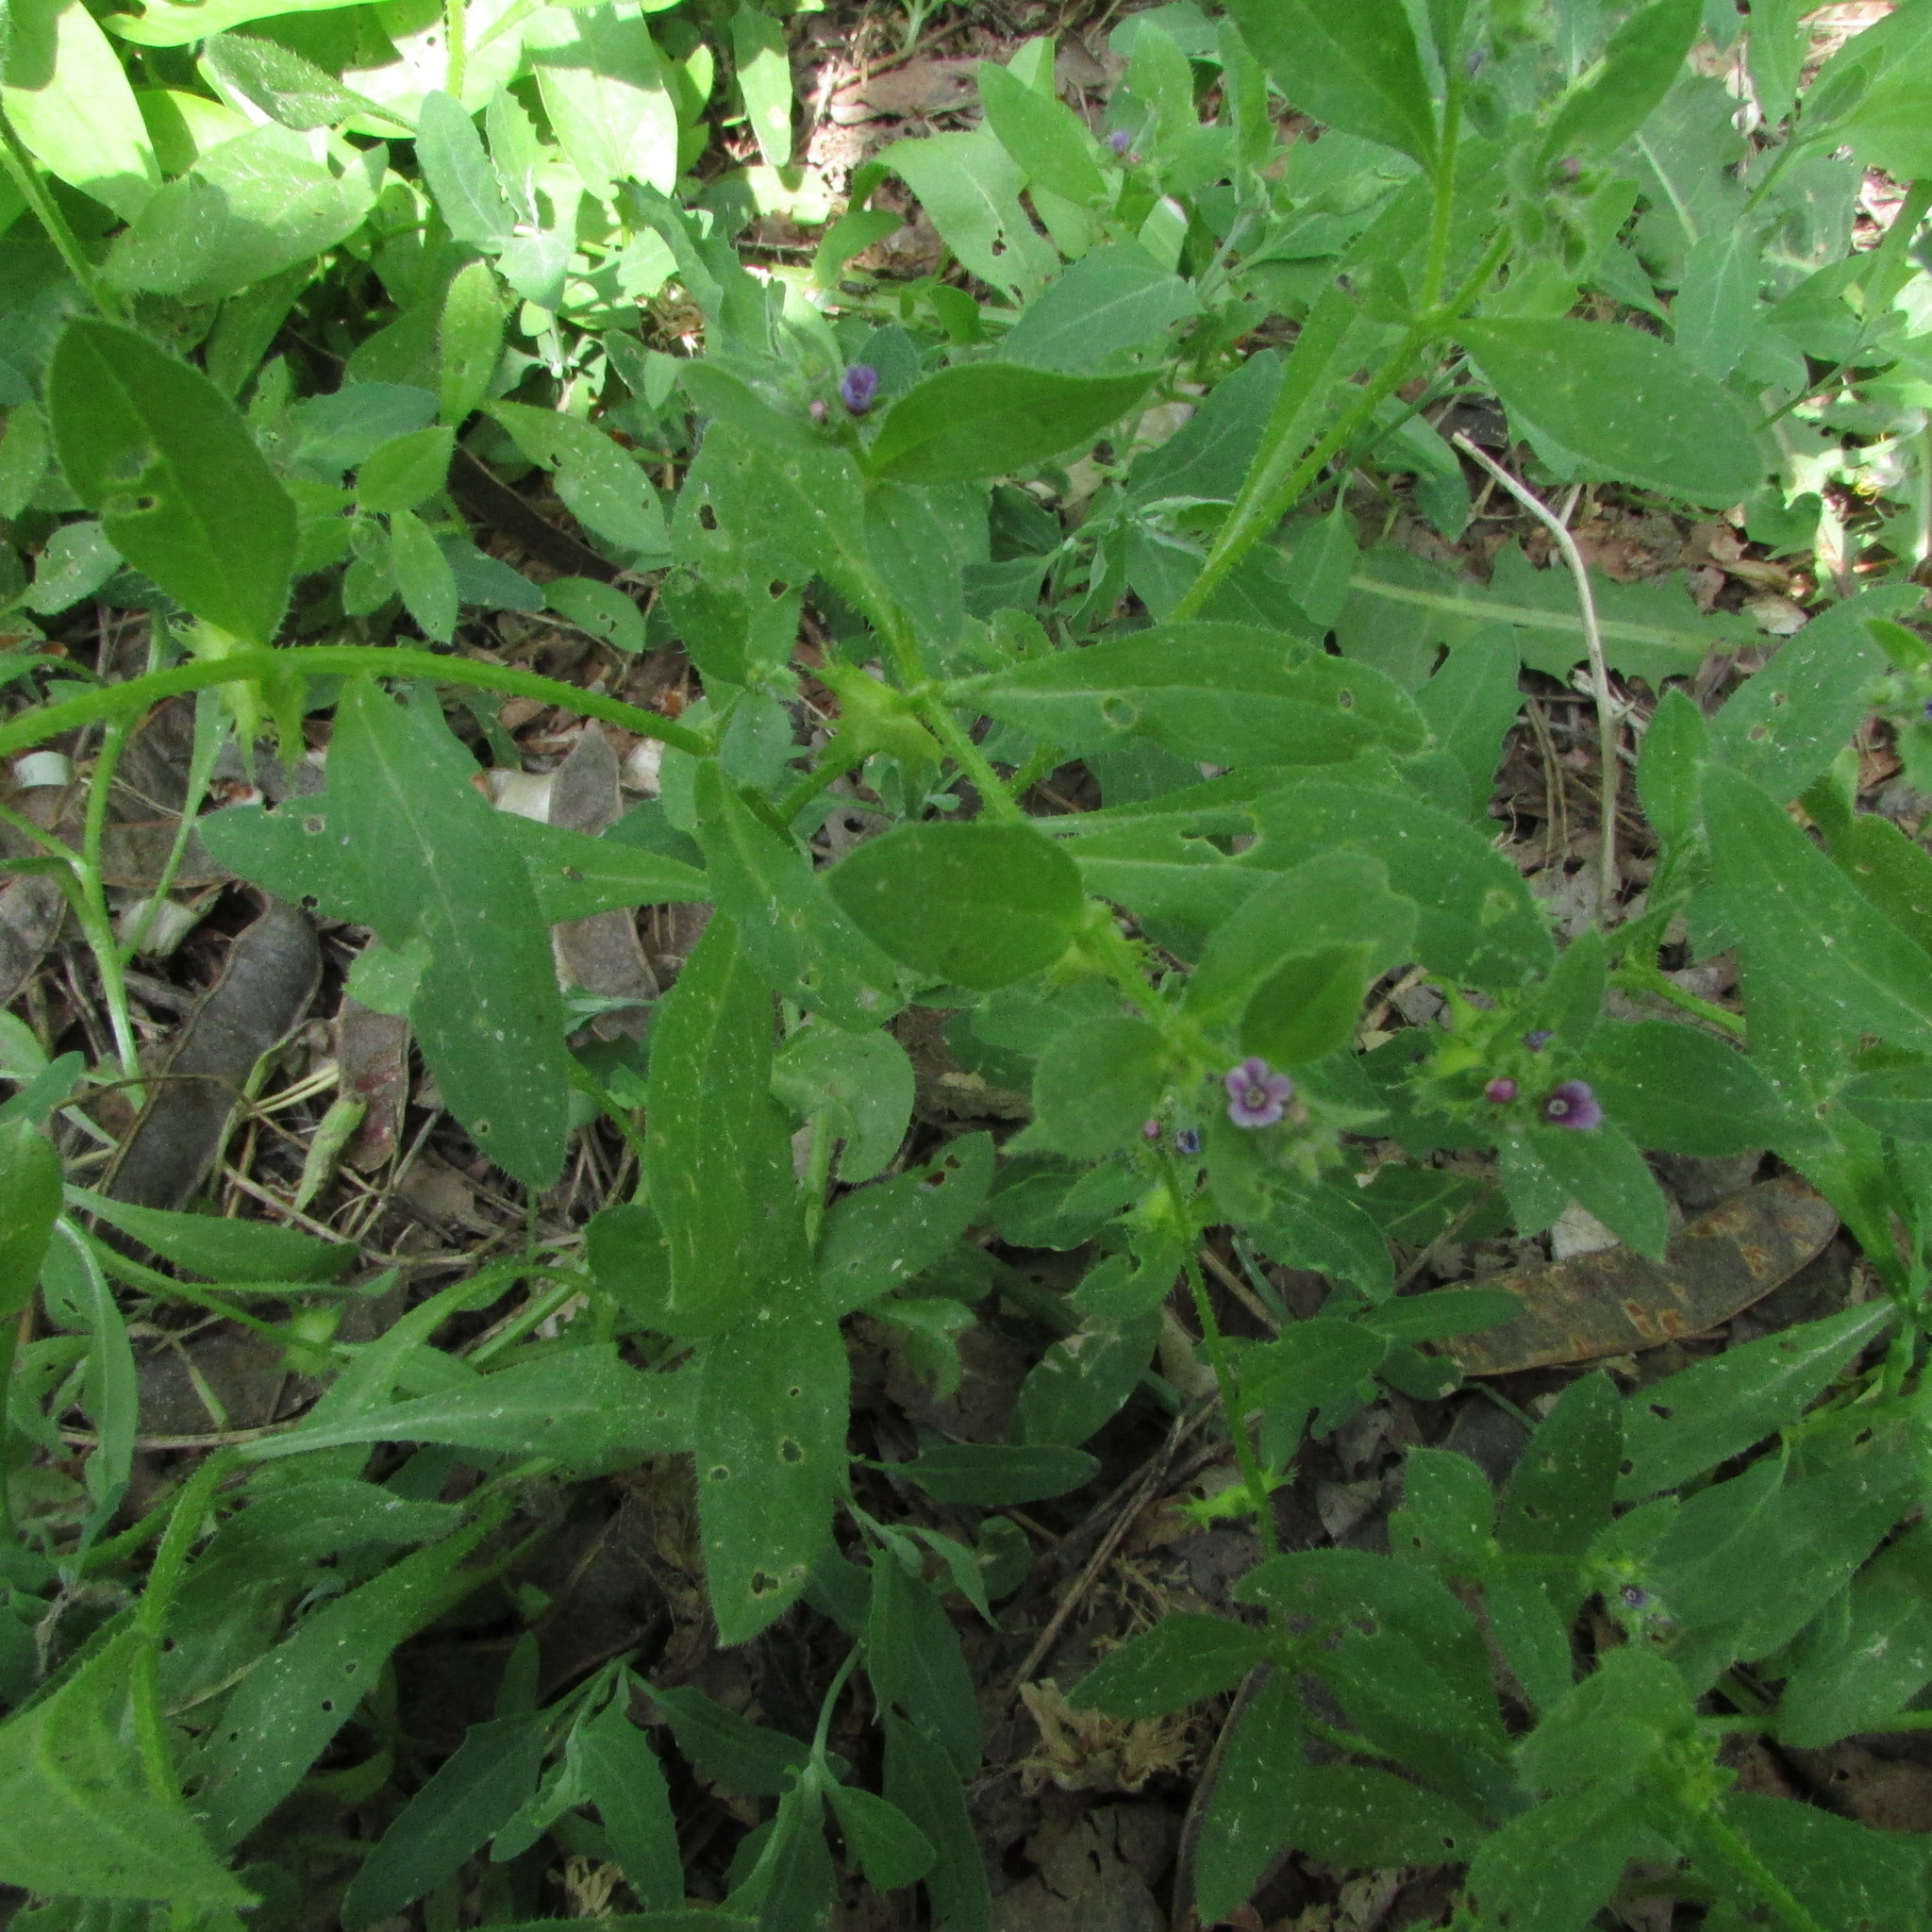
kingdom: Plantae
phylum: Tracheophyta
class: Magnoliopsida
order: Boraginales
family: Boraginaceae
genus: Asperugo
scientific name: Asperugo procumbens
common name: Madwort
